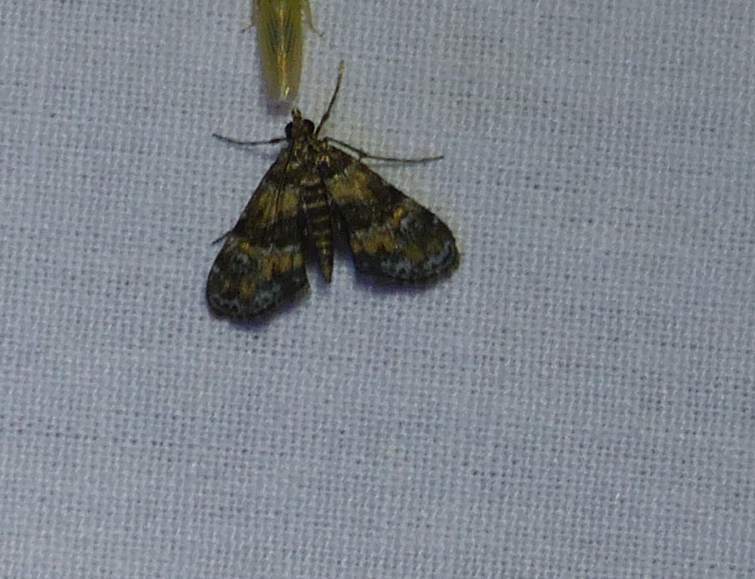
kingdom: Animalia
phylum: Arthropoda
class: Insecta
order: Lepidoptera
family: Crambidae
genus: Elophila
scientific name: Elophila obliteralis
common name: Waterlily leafcutter moth
